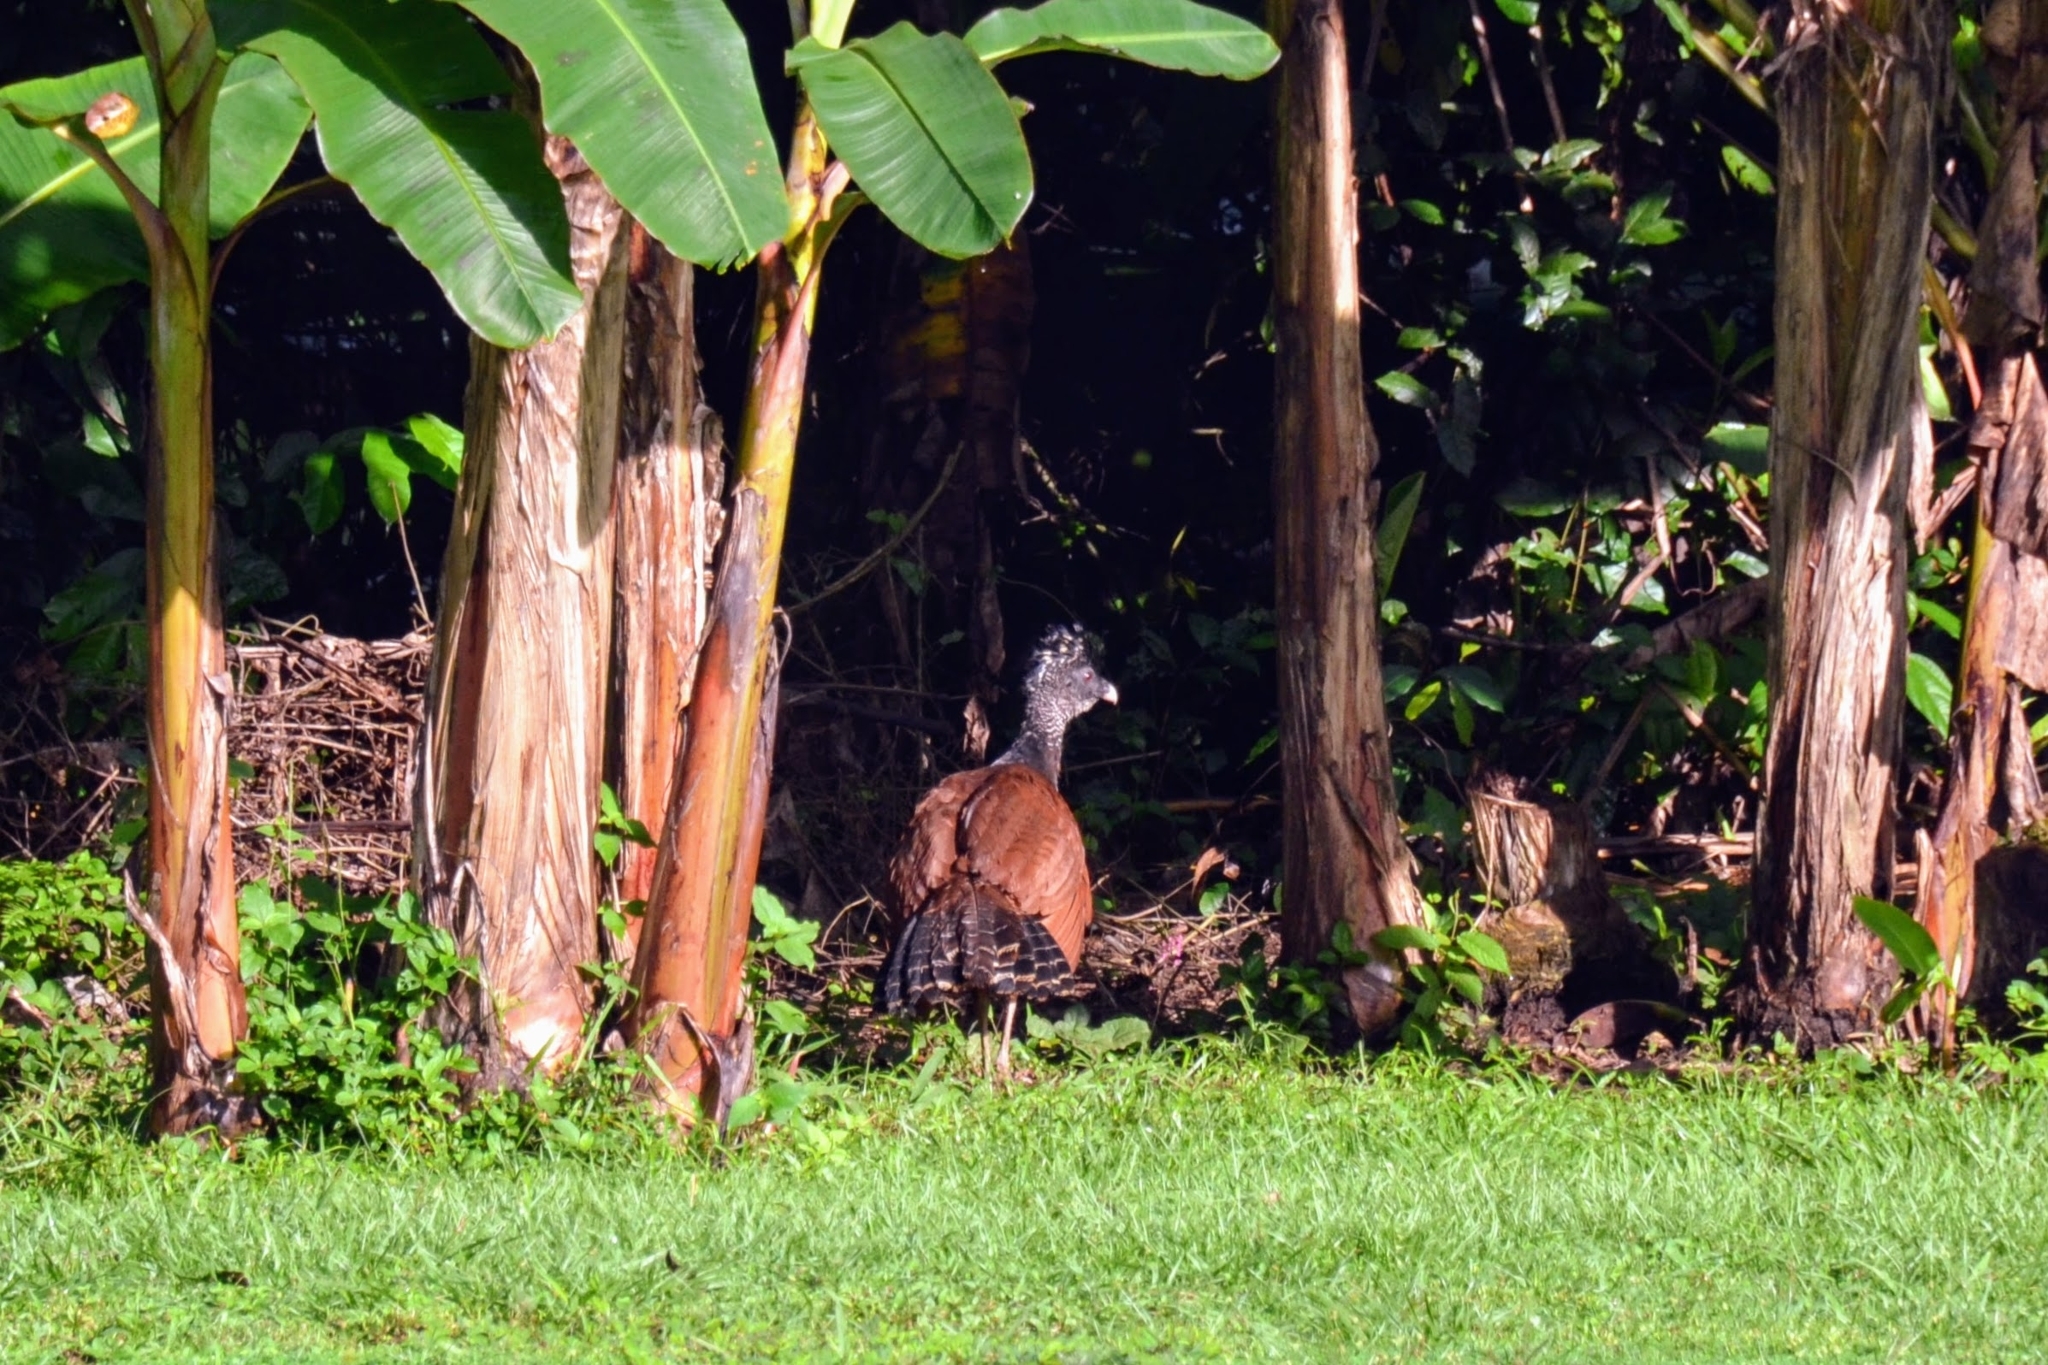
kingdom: Animalia
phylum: Chordata
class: Aves
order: Galliformes
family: Cracidae
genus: Crax
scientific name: Crax rubra
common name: Great curassow
